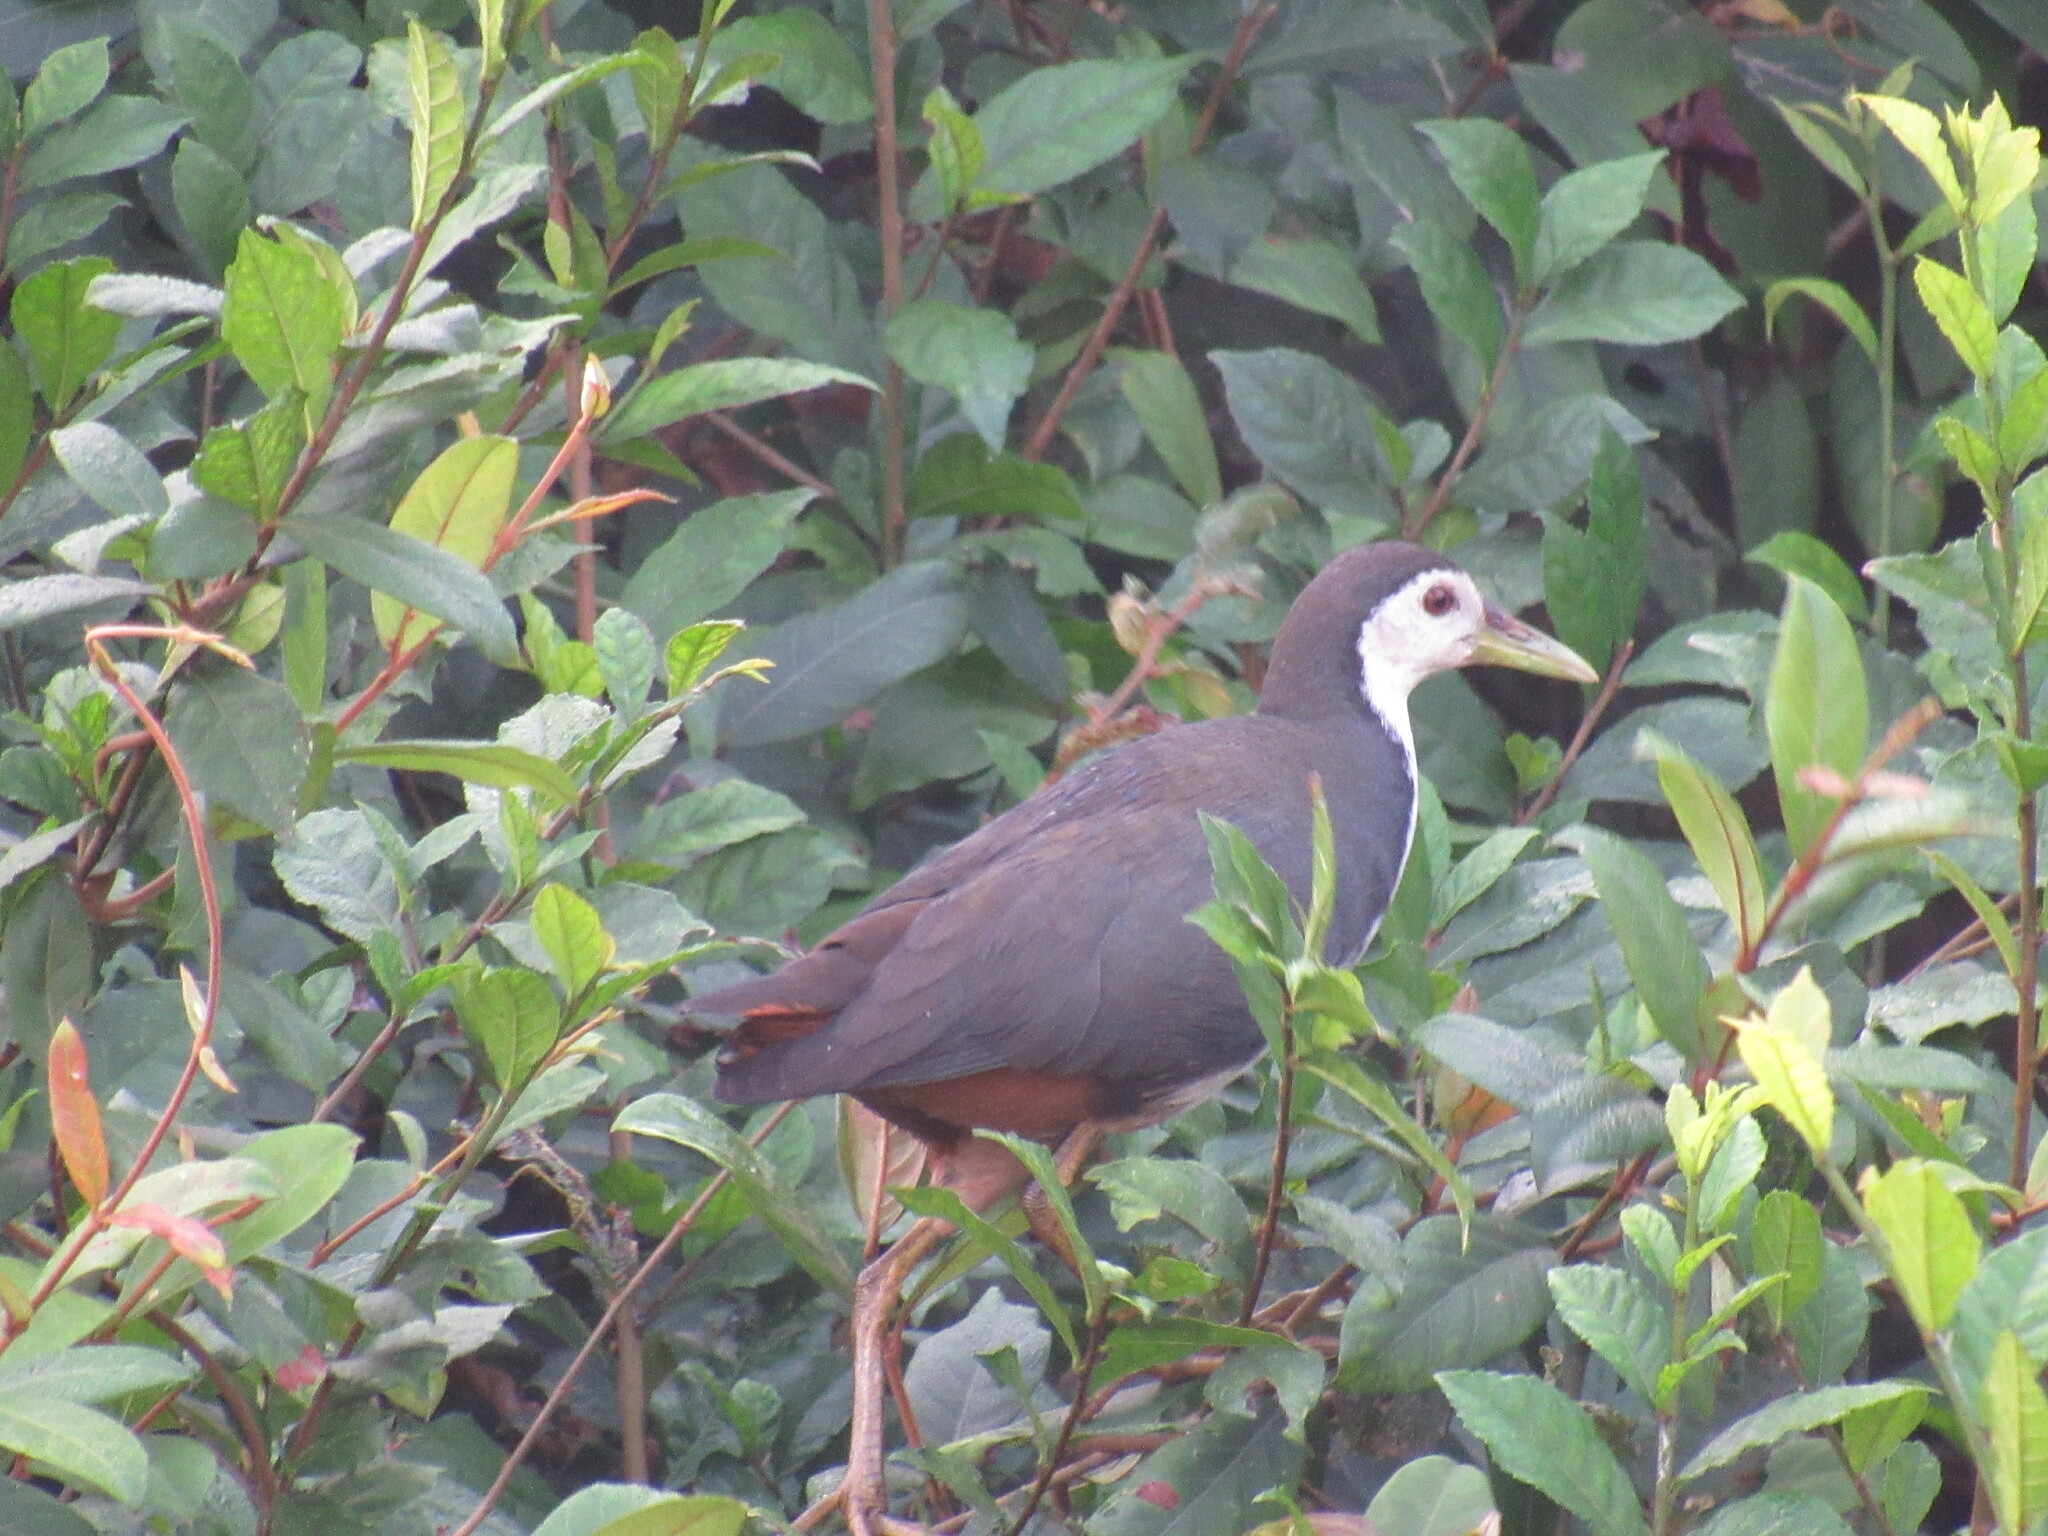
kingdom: Animalia
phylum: Chordata
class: Aves
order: Gruiformes
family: Rallidae
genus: Amaurornis
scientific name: Amaurornis phoenicurus
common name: White-breasted waterhen
